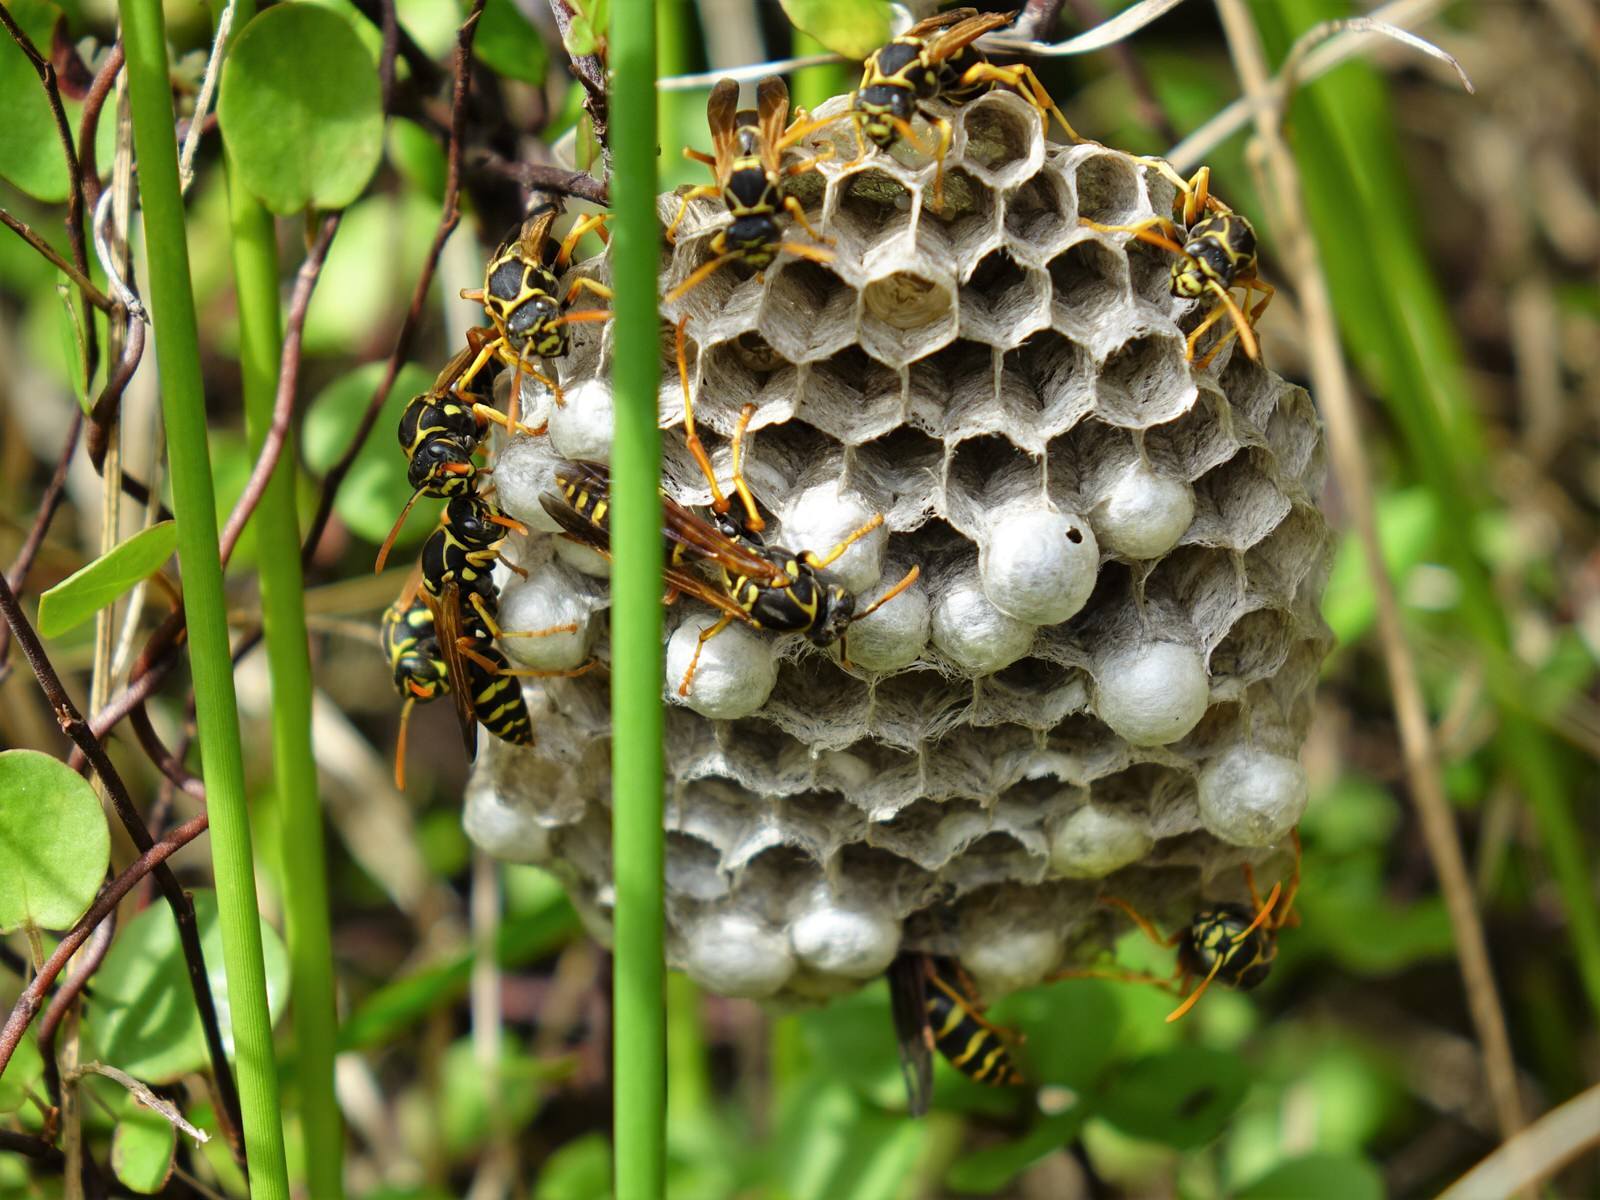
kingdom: Animalia
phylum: Arthropoda
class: Insecta
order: Hymenoptera
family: Eumenidae
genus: Polistes
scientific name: Polistes chinensis
